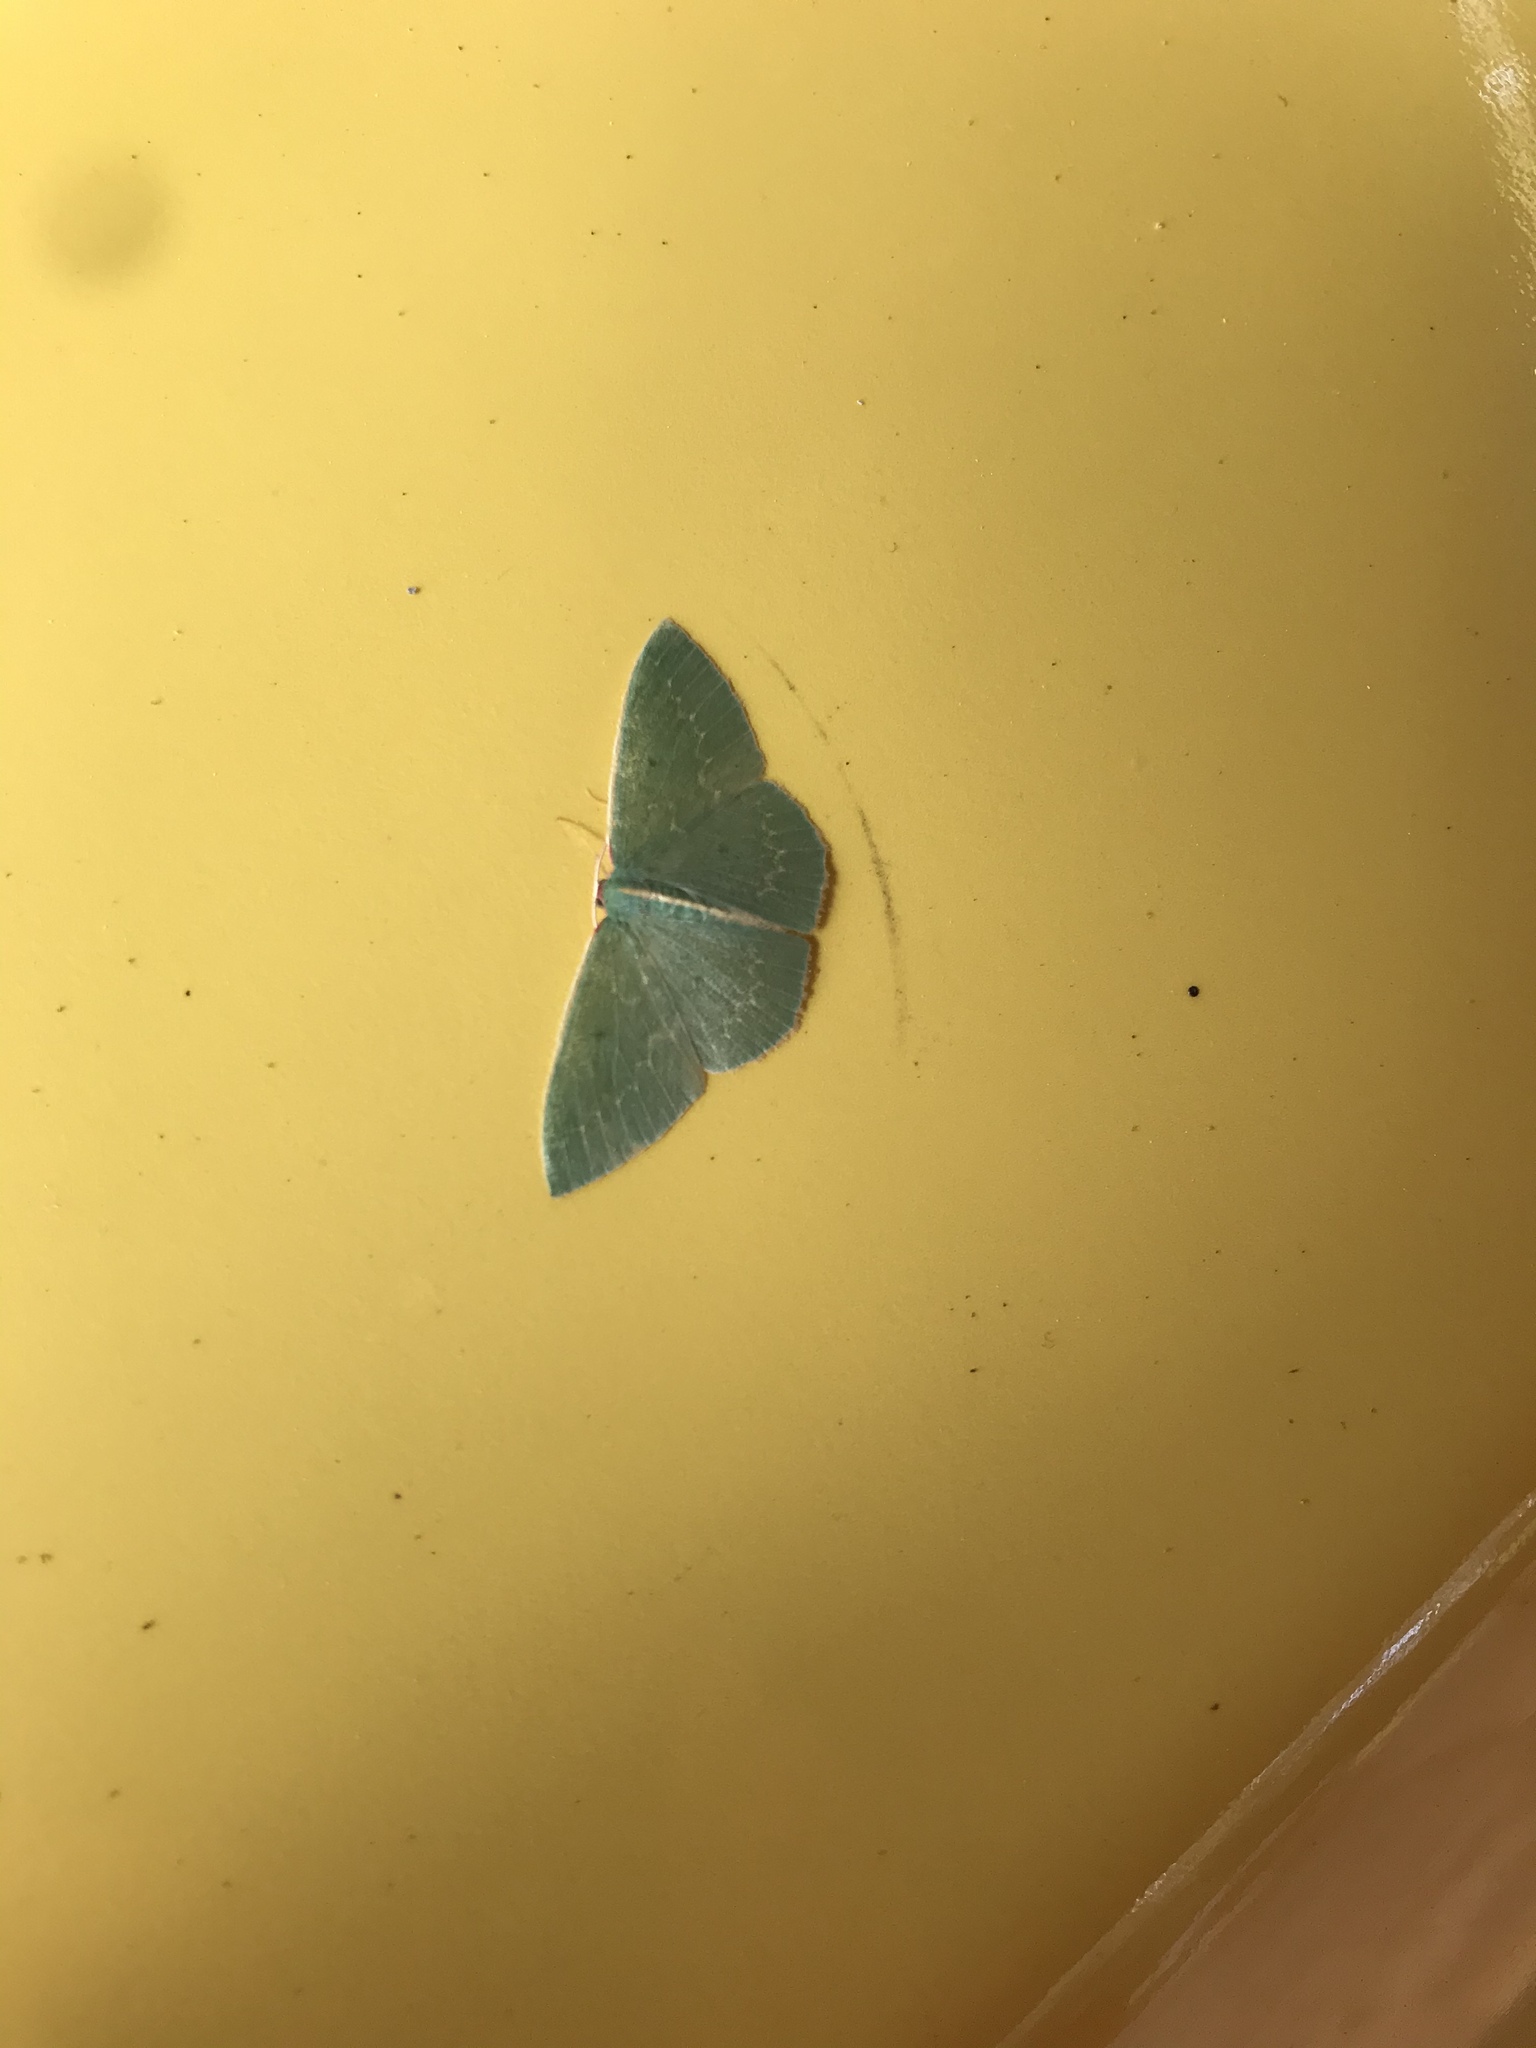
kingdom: Animalia
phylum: Arthropoda
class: Insecta
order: Lepidoptera
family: Geometridae
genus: Chlorocoma
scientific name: Chlorocoma melocrossa
